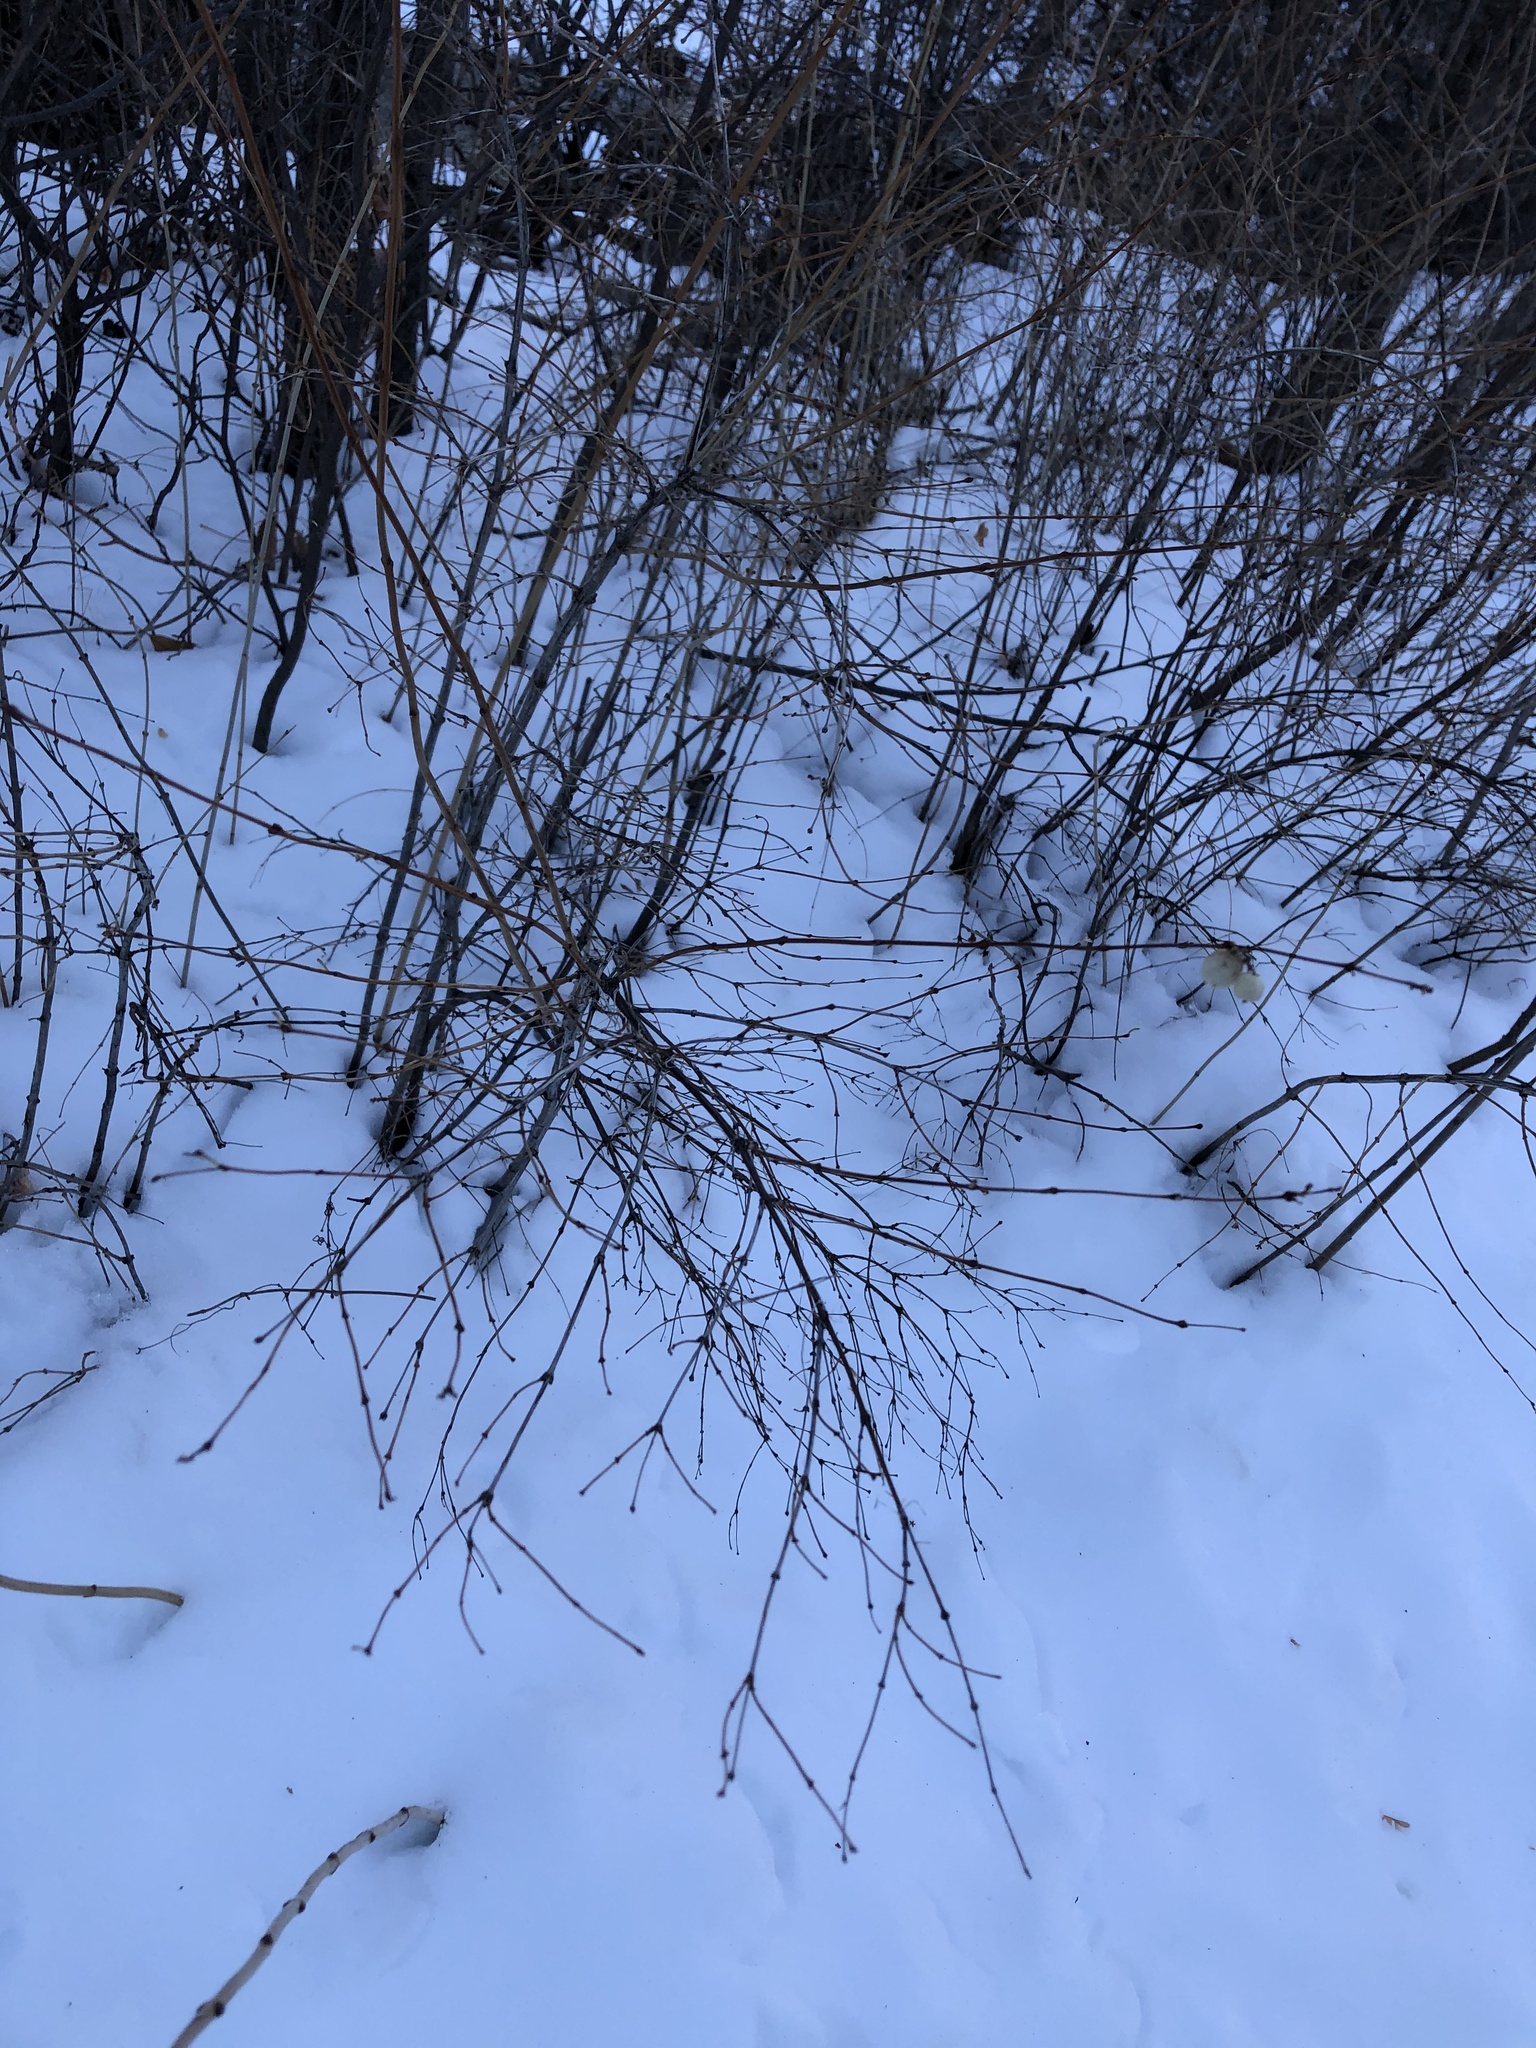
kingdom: Plantae
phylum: Tracheophyta
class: Magnoliopsida
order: Dipsacales
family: Caprifoliaceae
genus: Symphoricarpos
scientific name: Symphoricarpos albus
